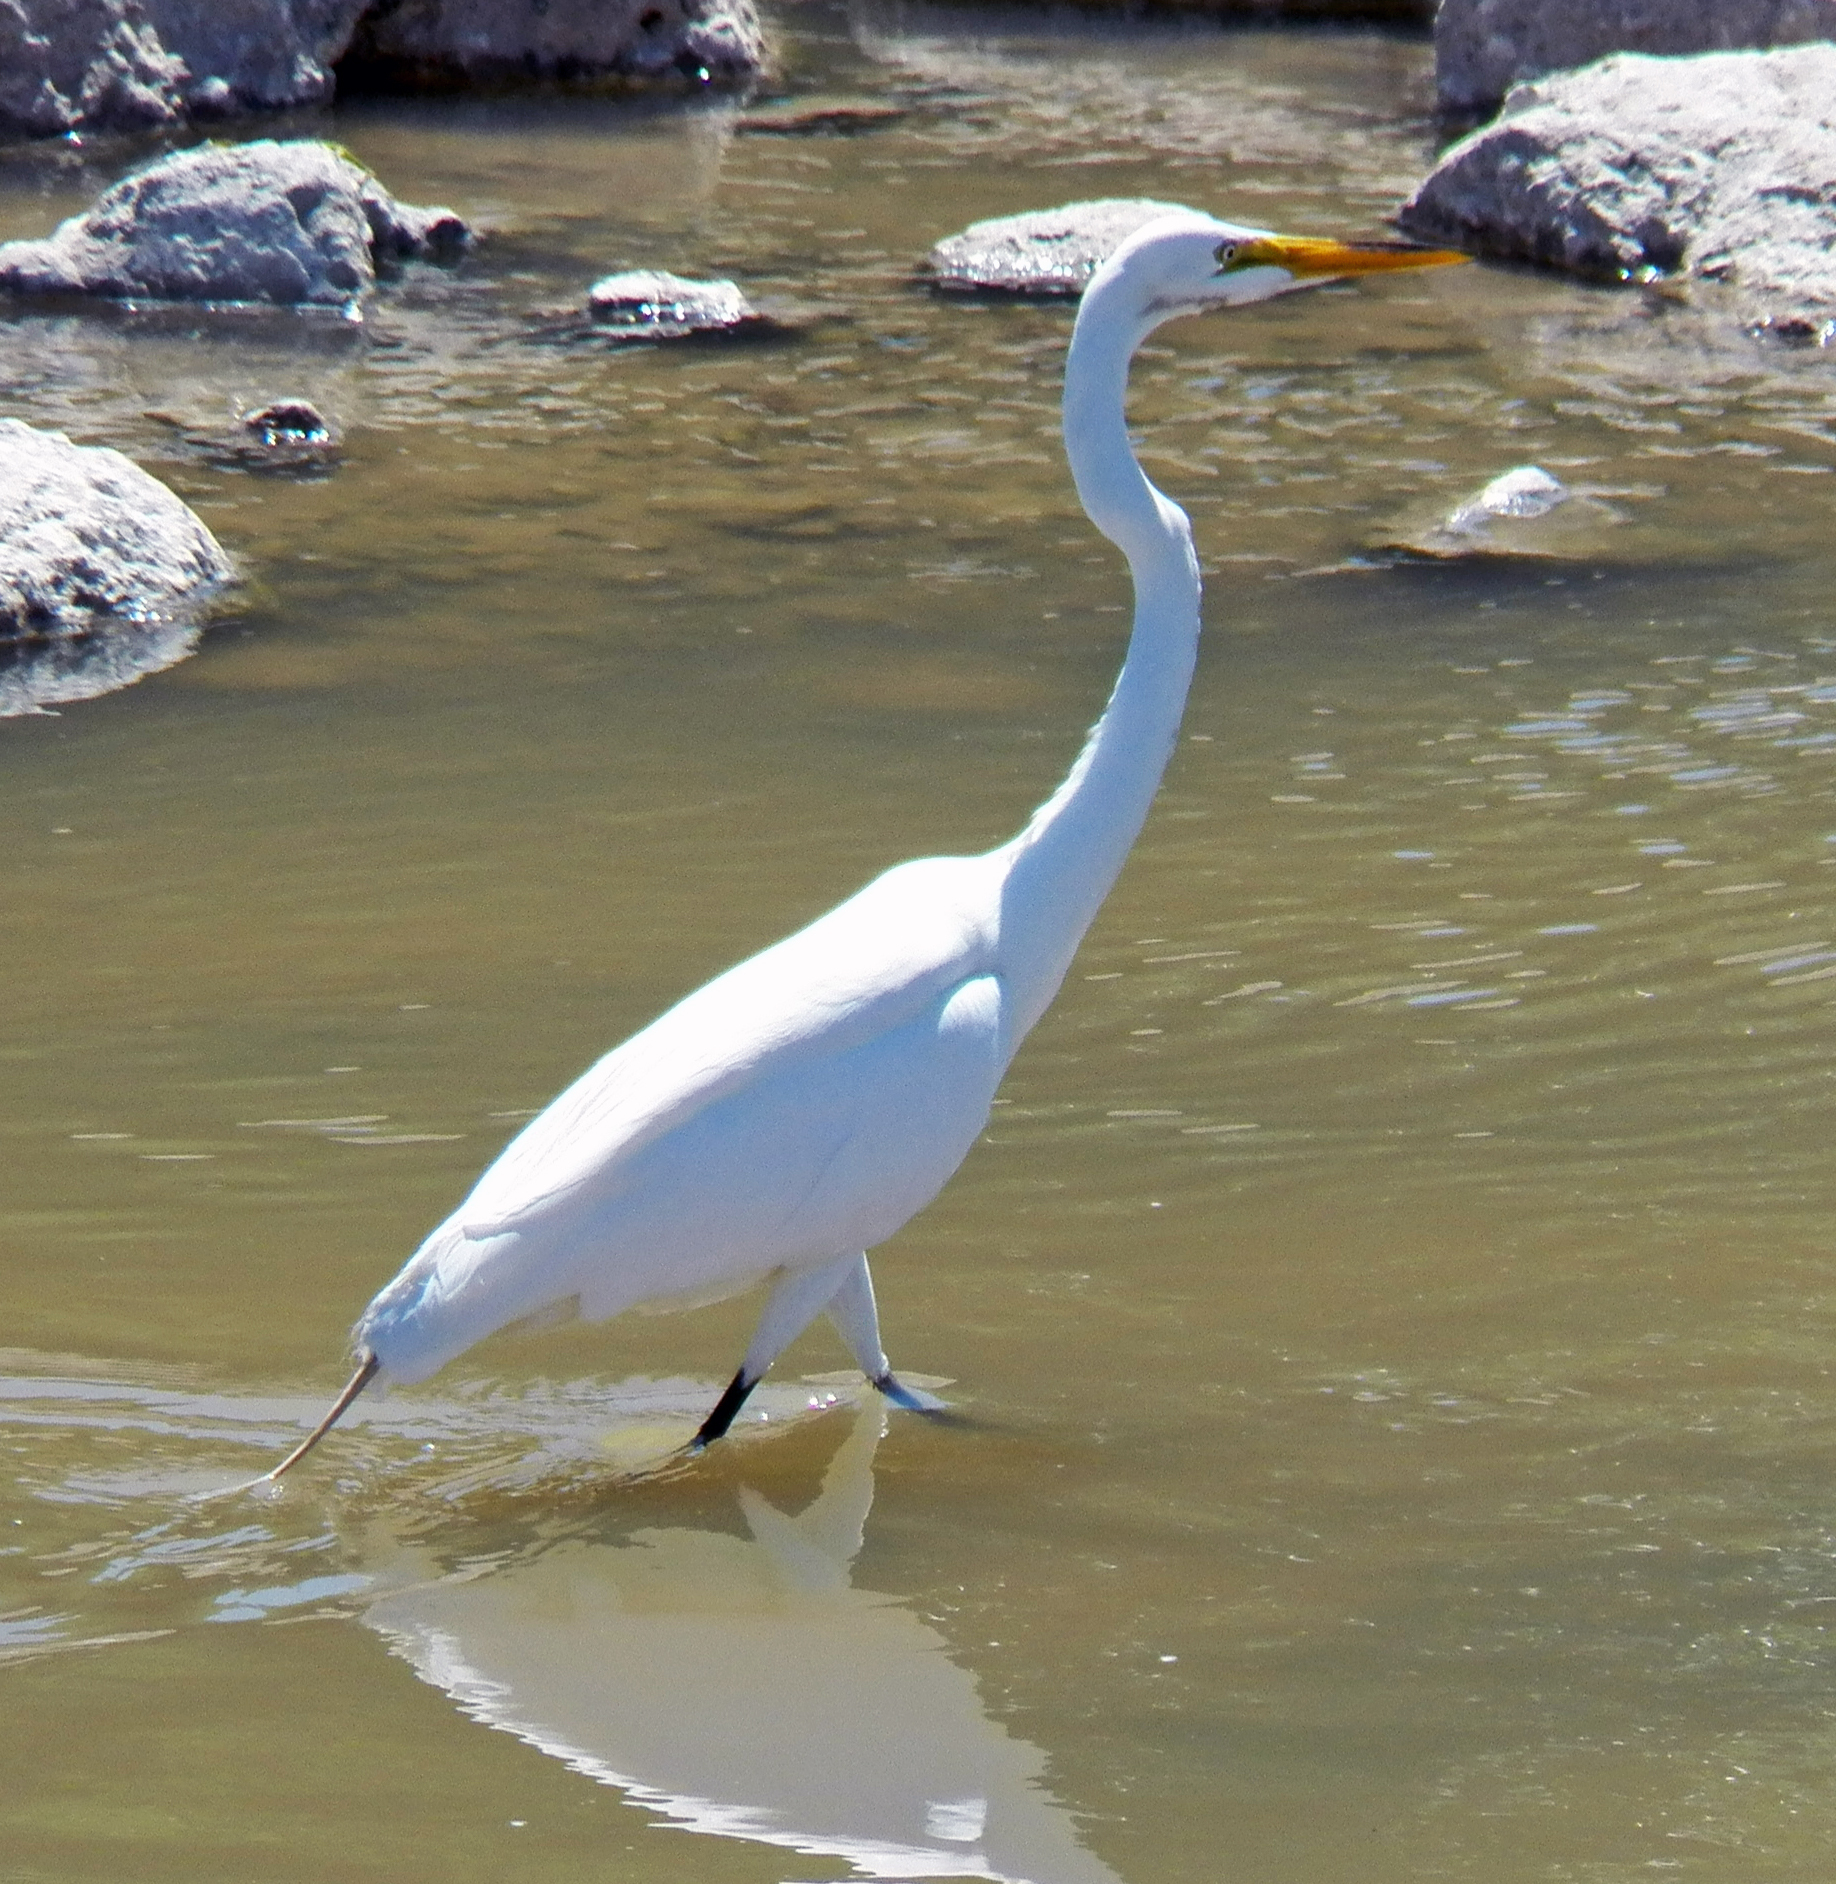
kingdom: Animalia
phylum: Chordata
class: Aves
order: Pelecaniformes
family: Ardeidae
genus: Ardea
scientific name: Ardea alba
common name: Great egret
